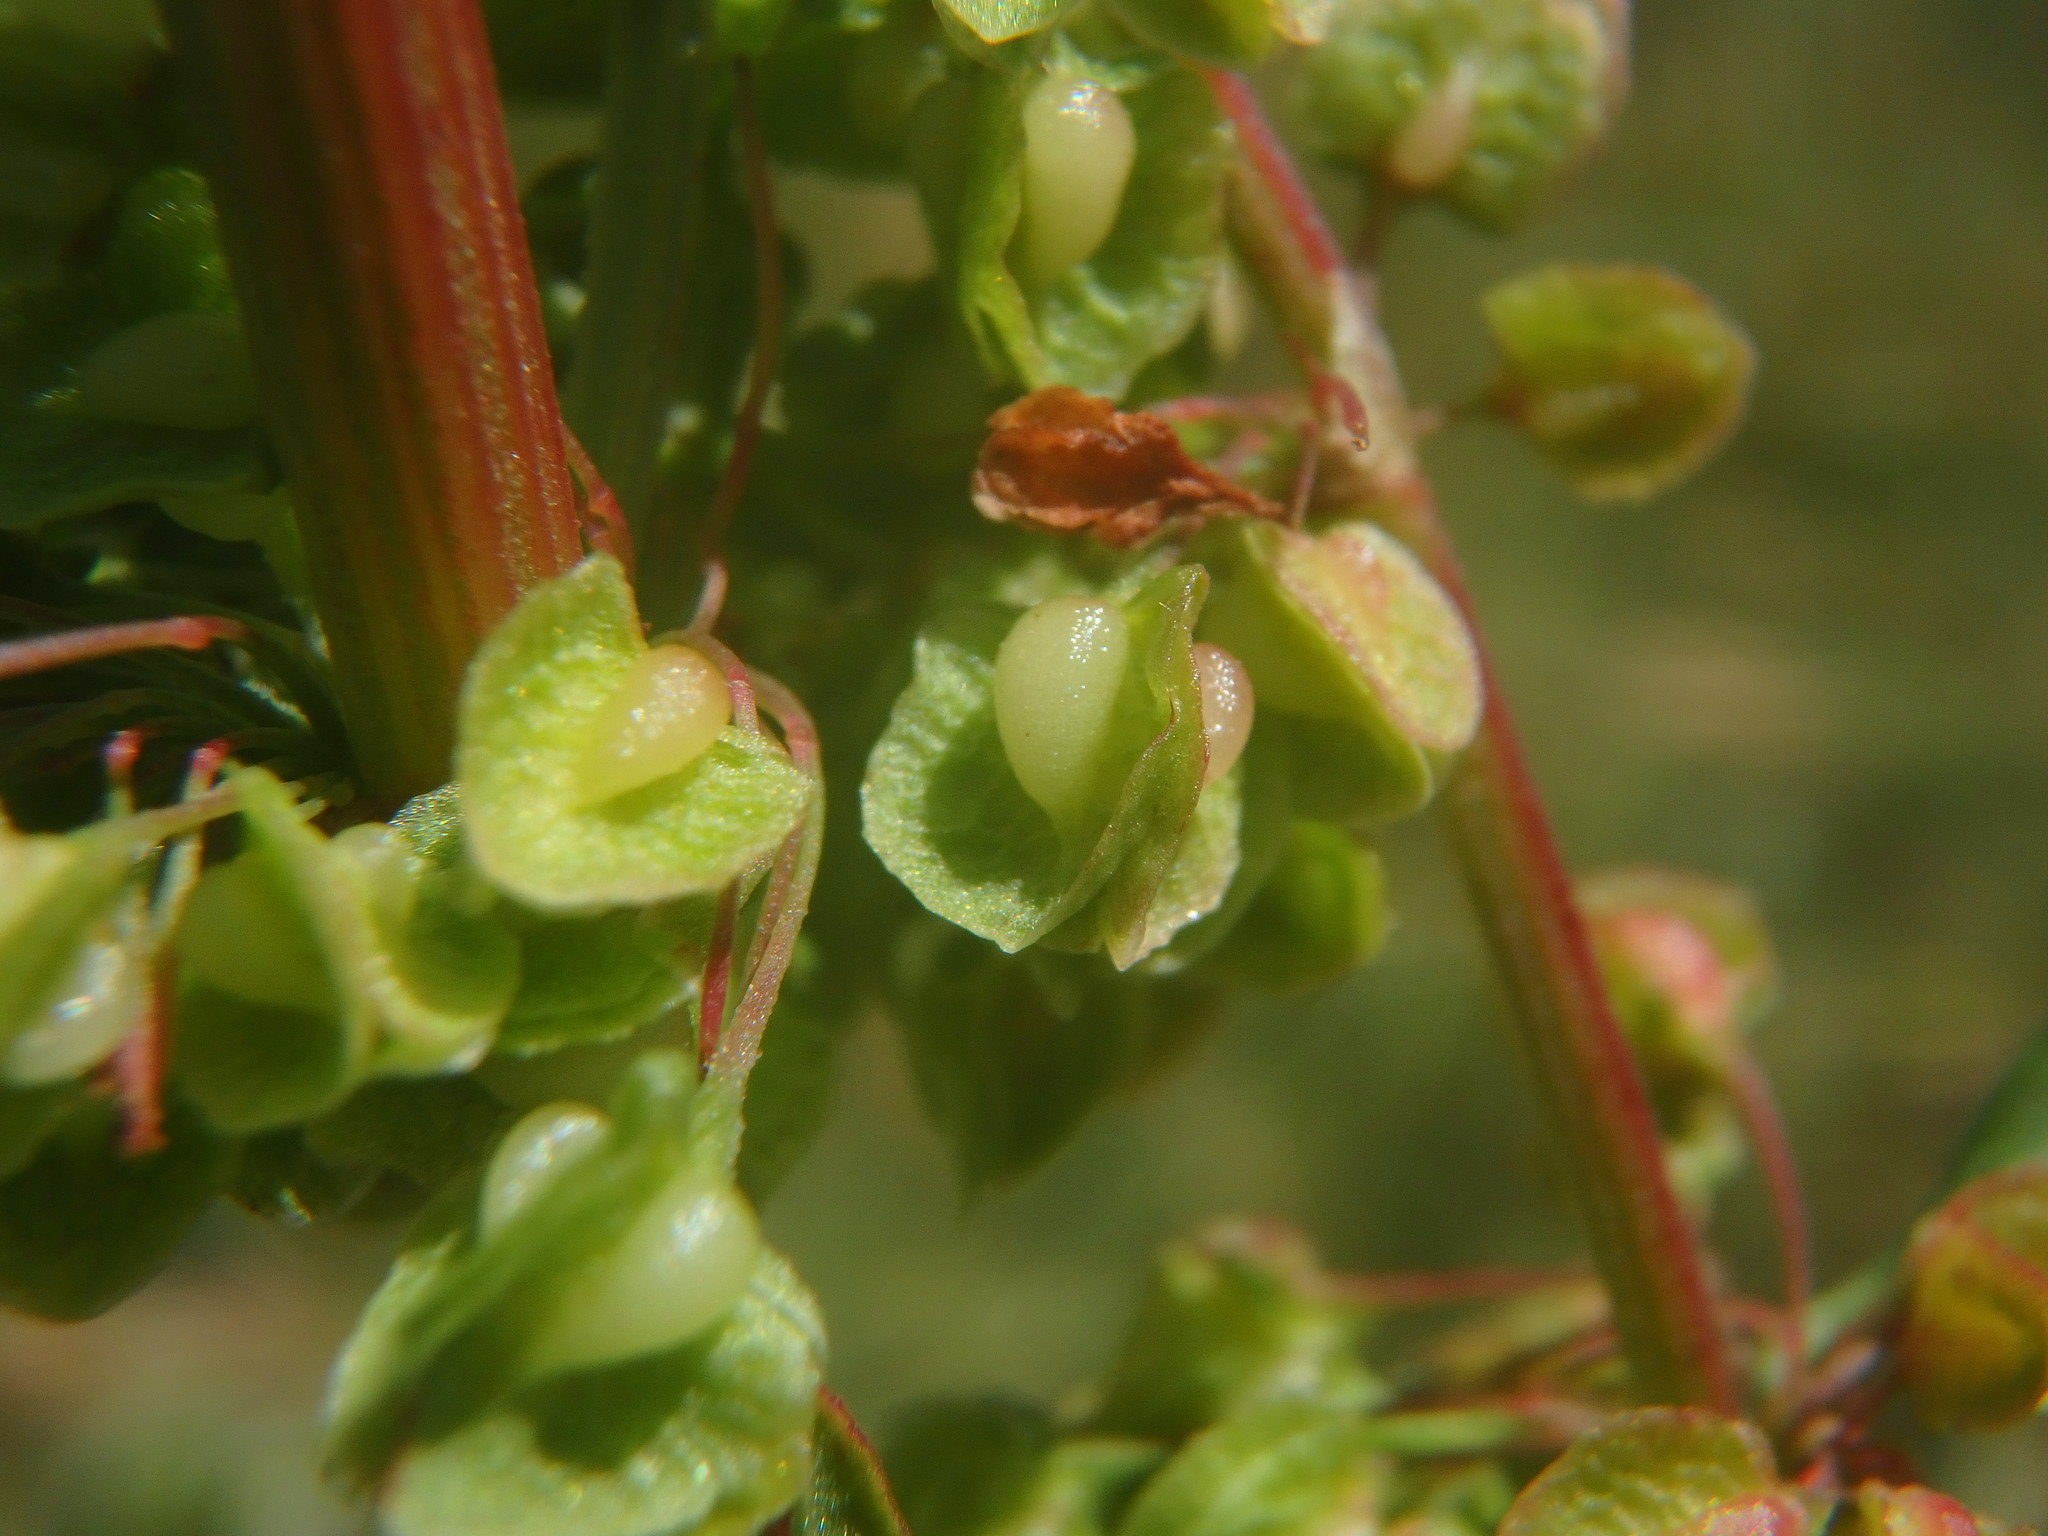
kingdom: Plantae
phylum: Tracheophyta
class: Magnoliopsida
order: Caryophyllales
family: Polygonaceae
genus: Rumex
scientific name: Rumex crispus
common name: Curled dock
